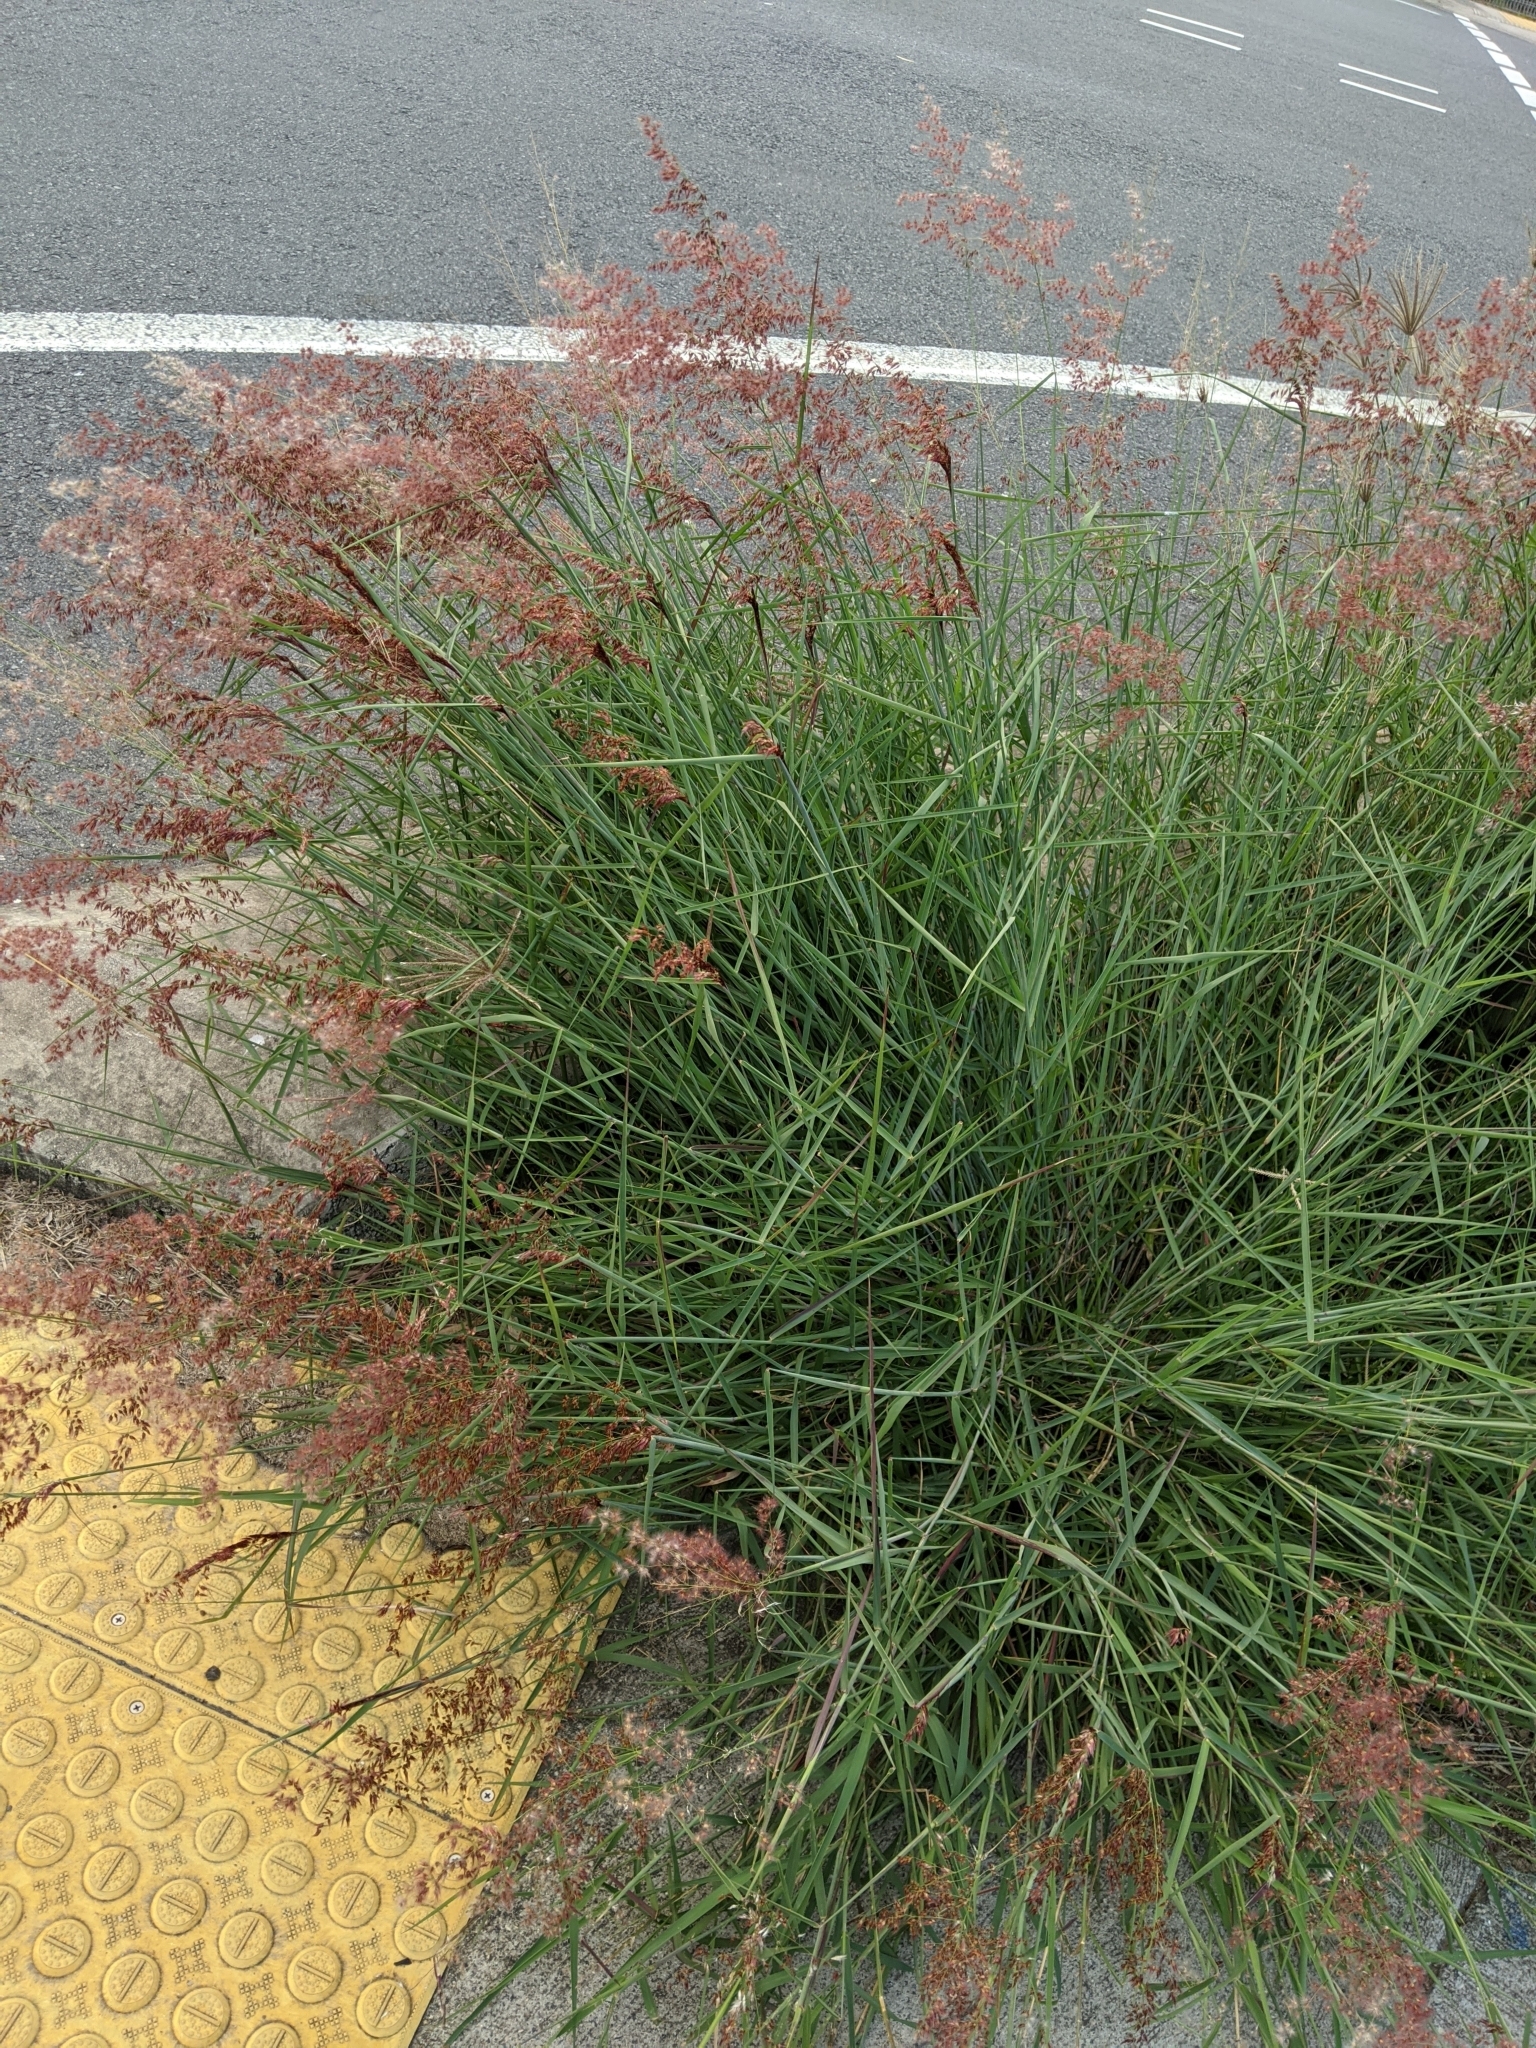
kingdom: Plantae
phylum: Tracheophyta
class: Liliopsida
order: Poales
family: Poaceae
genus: Melinis
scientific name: Melinis repens
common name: Rose natal grass
